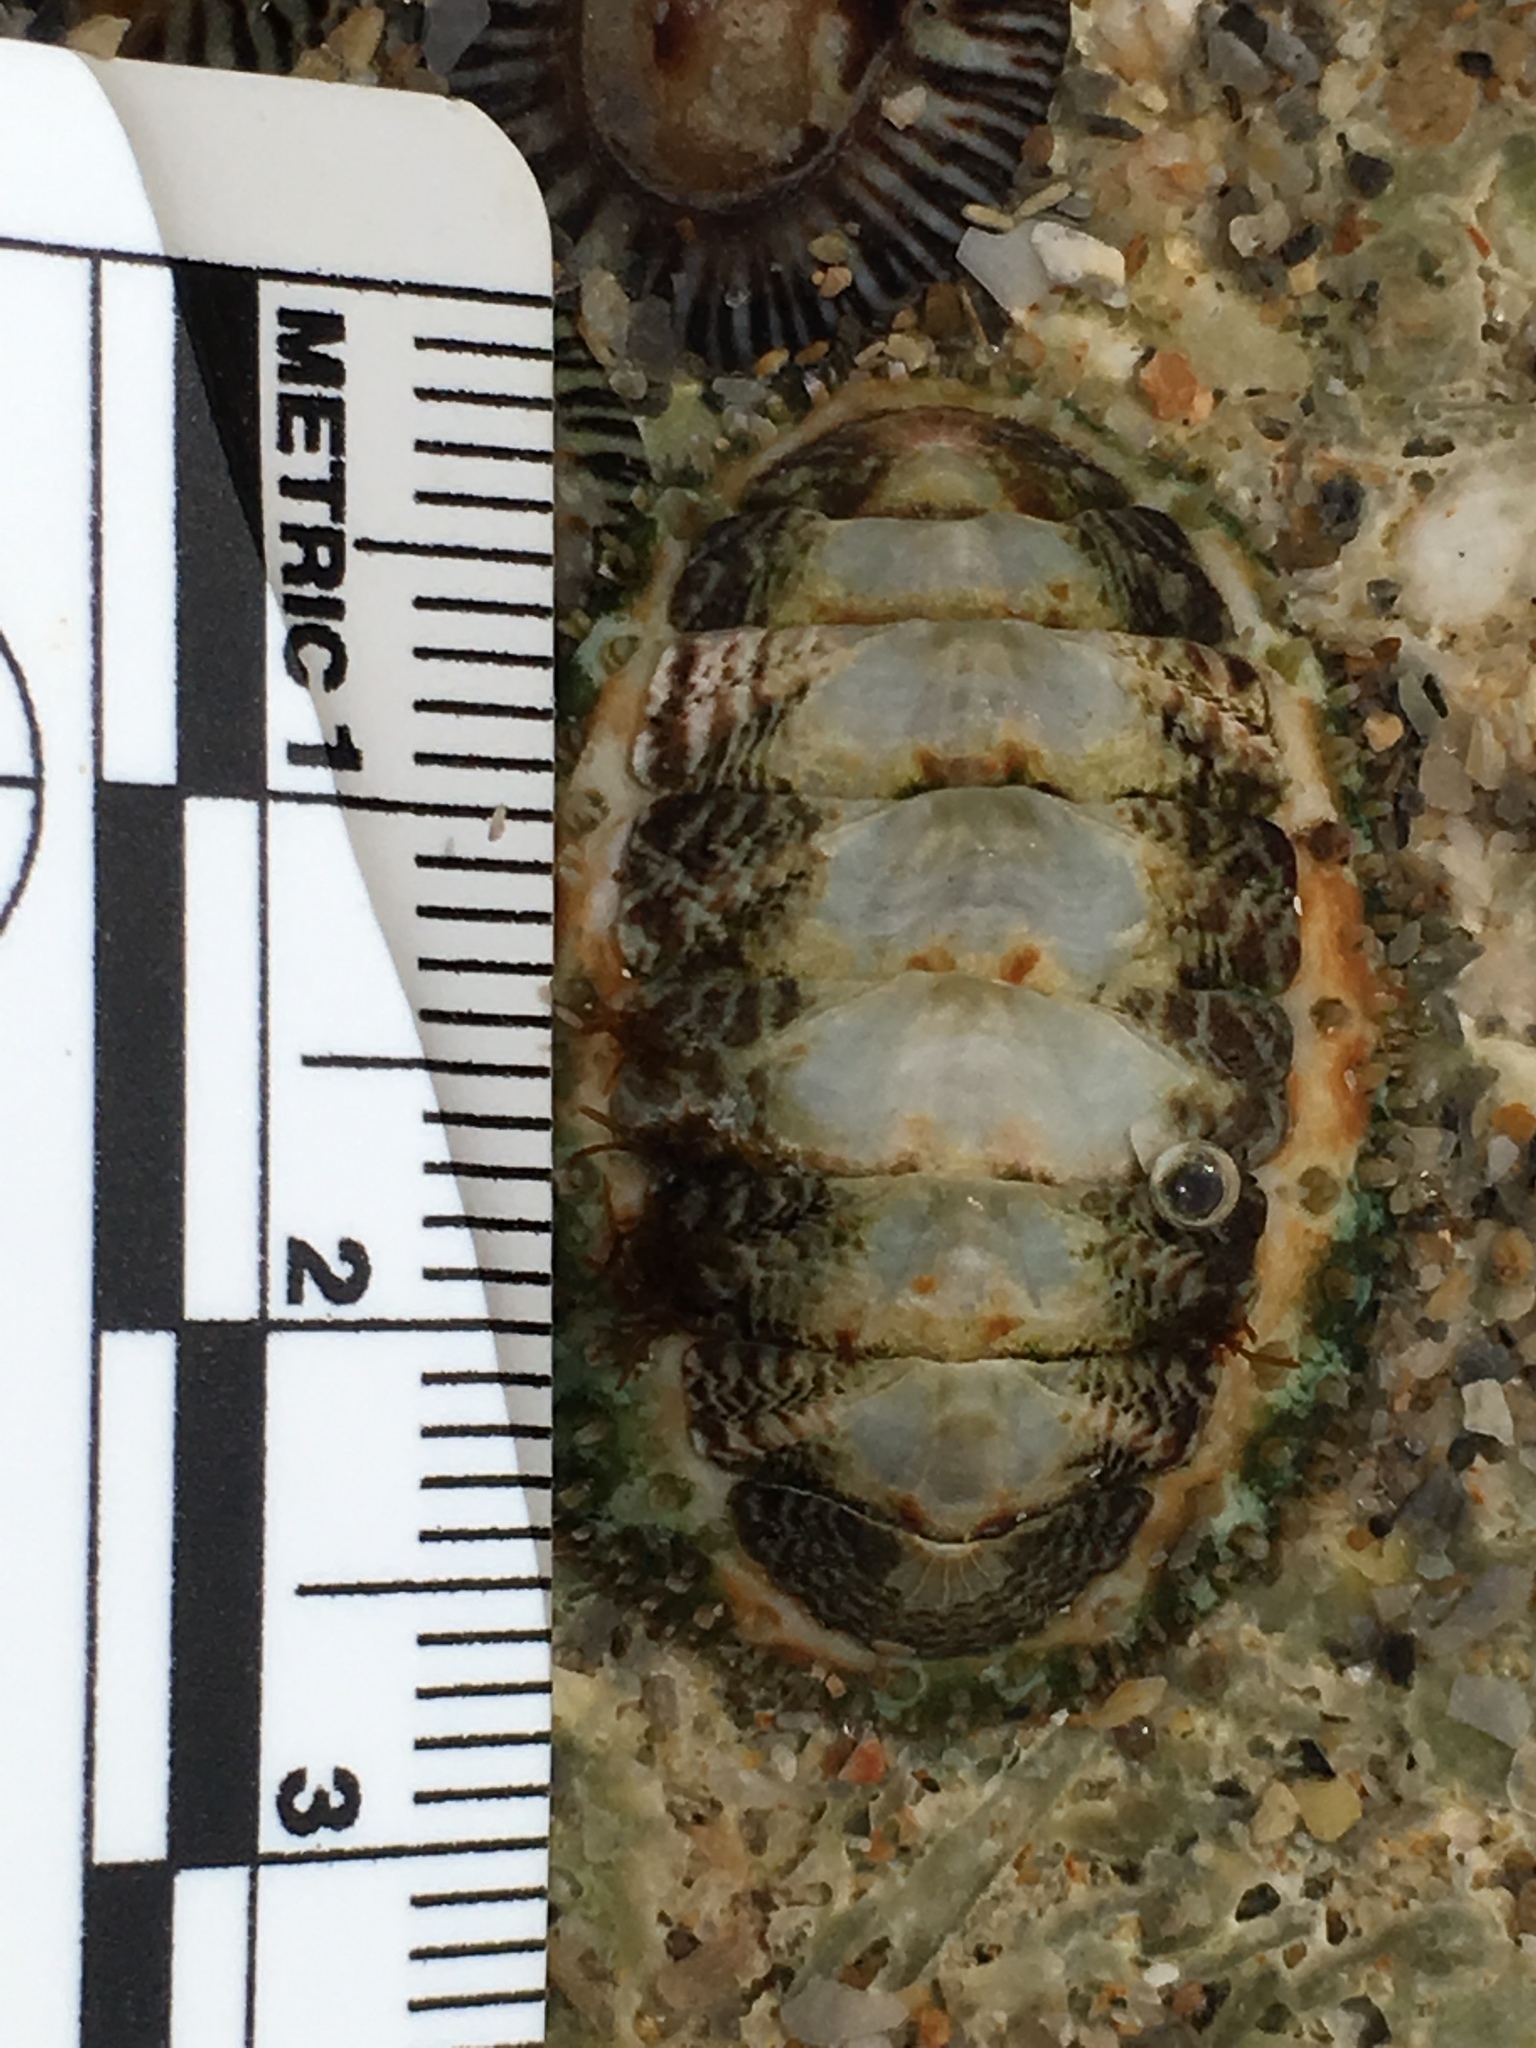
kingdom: Animalia
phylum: Mollusca
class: Polyplacophora
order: Chitonida
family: Tonicellidae
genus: Ceratozona
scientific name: Ceratozona squalida
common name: Rough-girdled chiton
